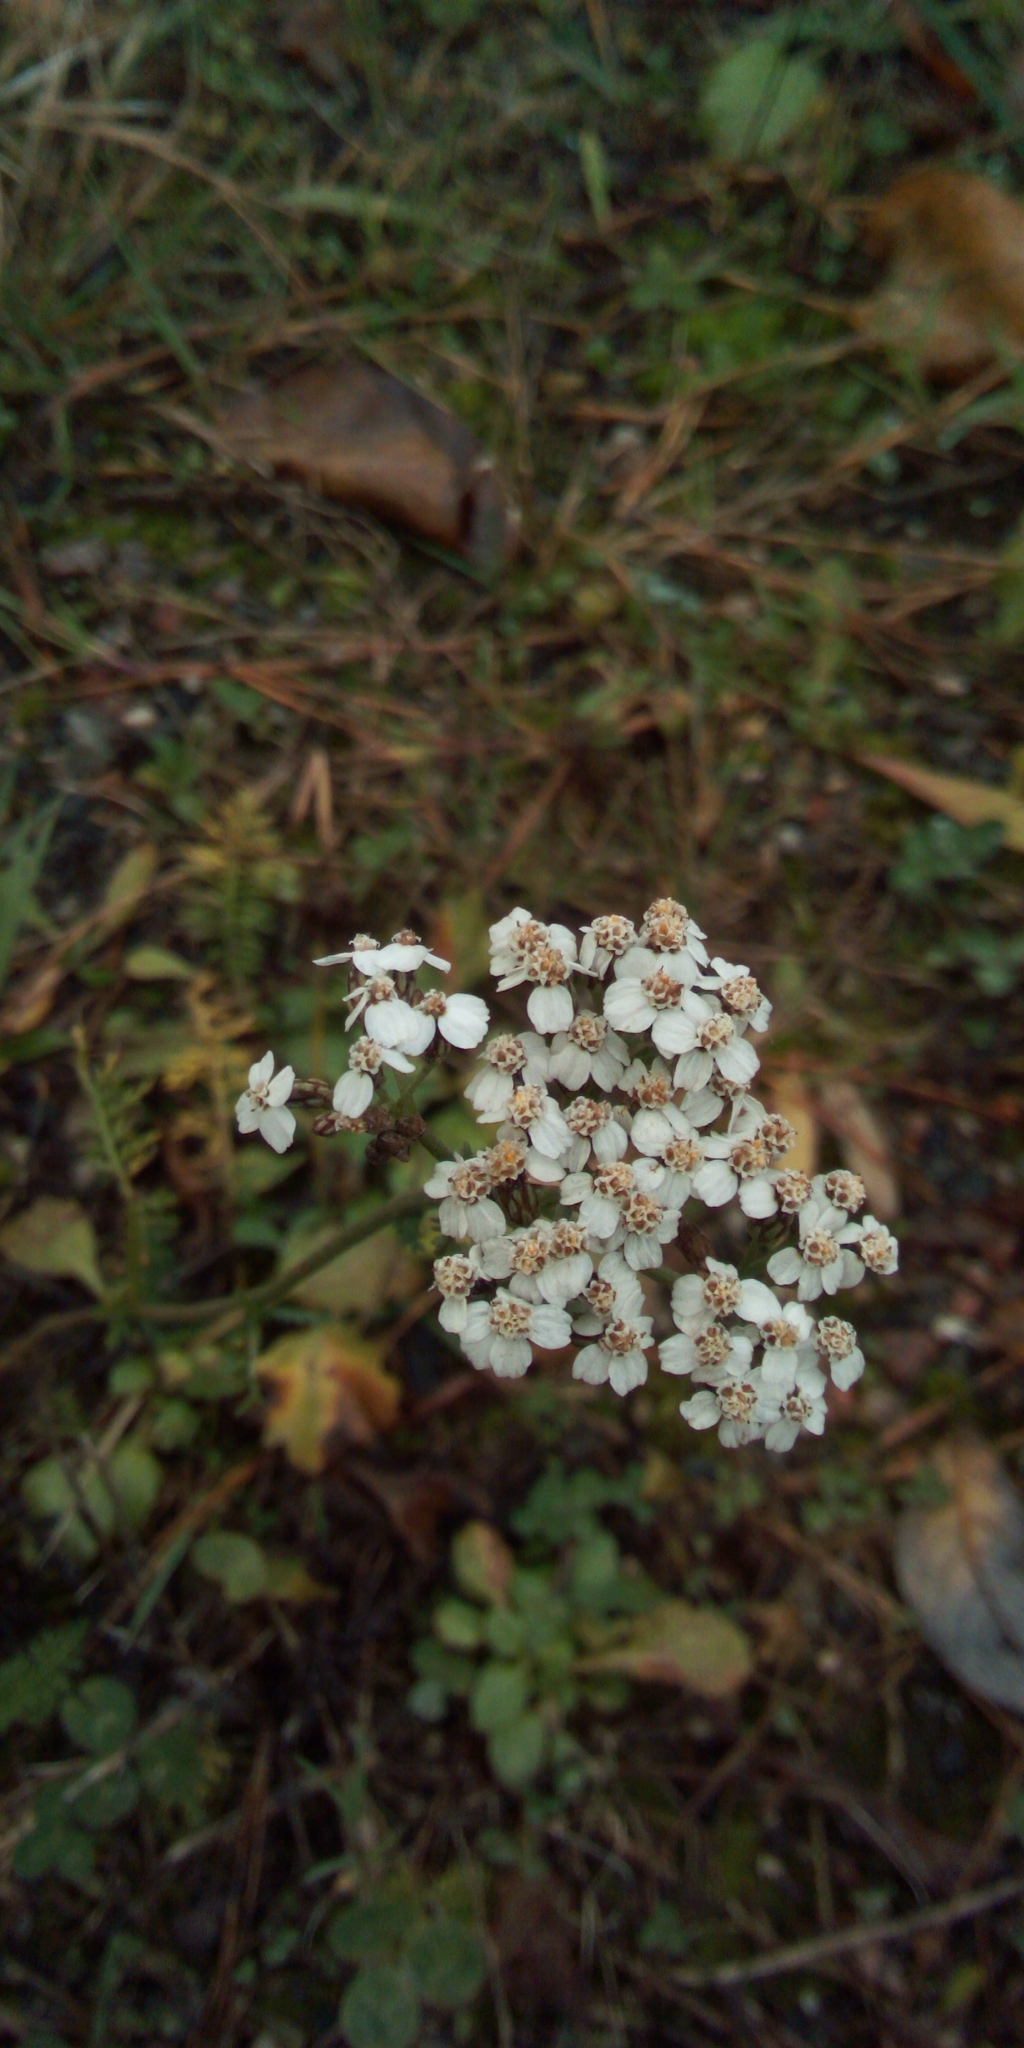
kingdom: Plantae
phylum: Tracheophyta
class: Magnoliopsida
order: Asterales
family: Asteraceae
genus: Achillea
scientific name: Achillea millefolium
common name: Yarrow
